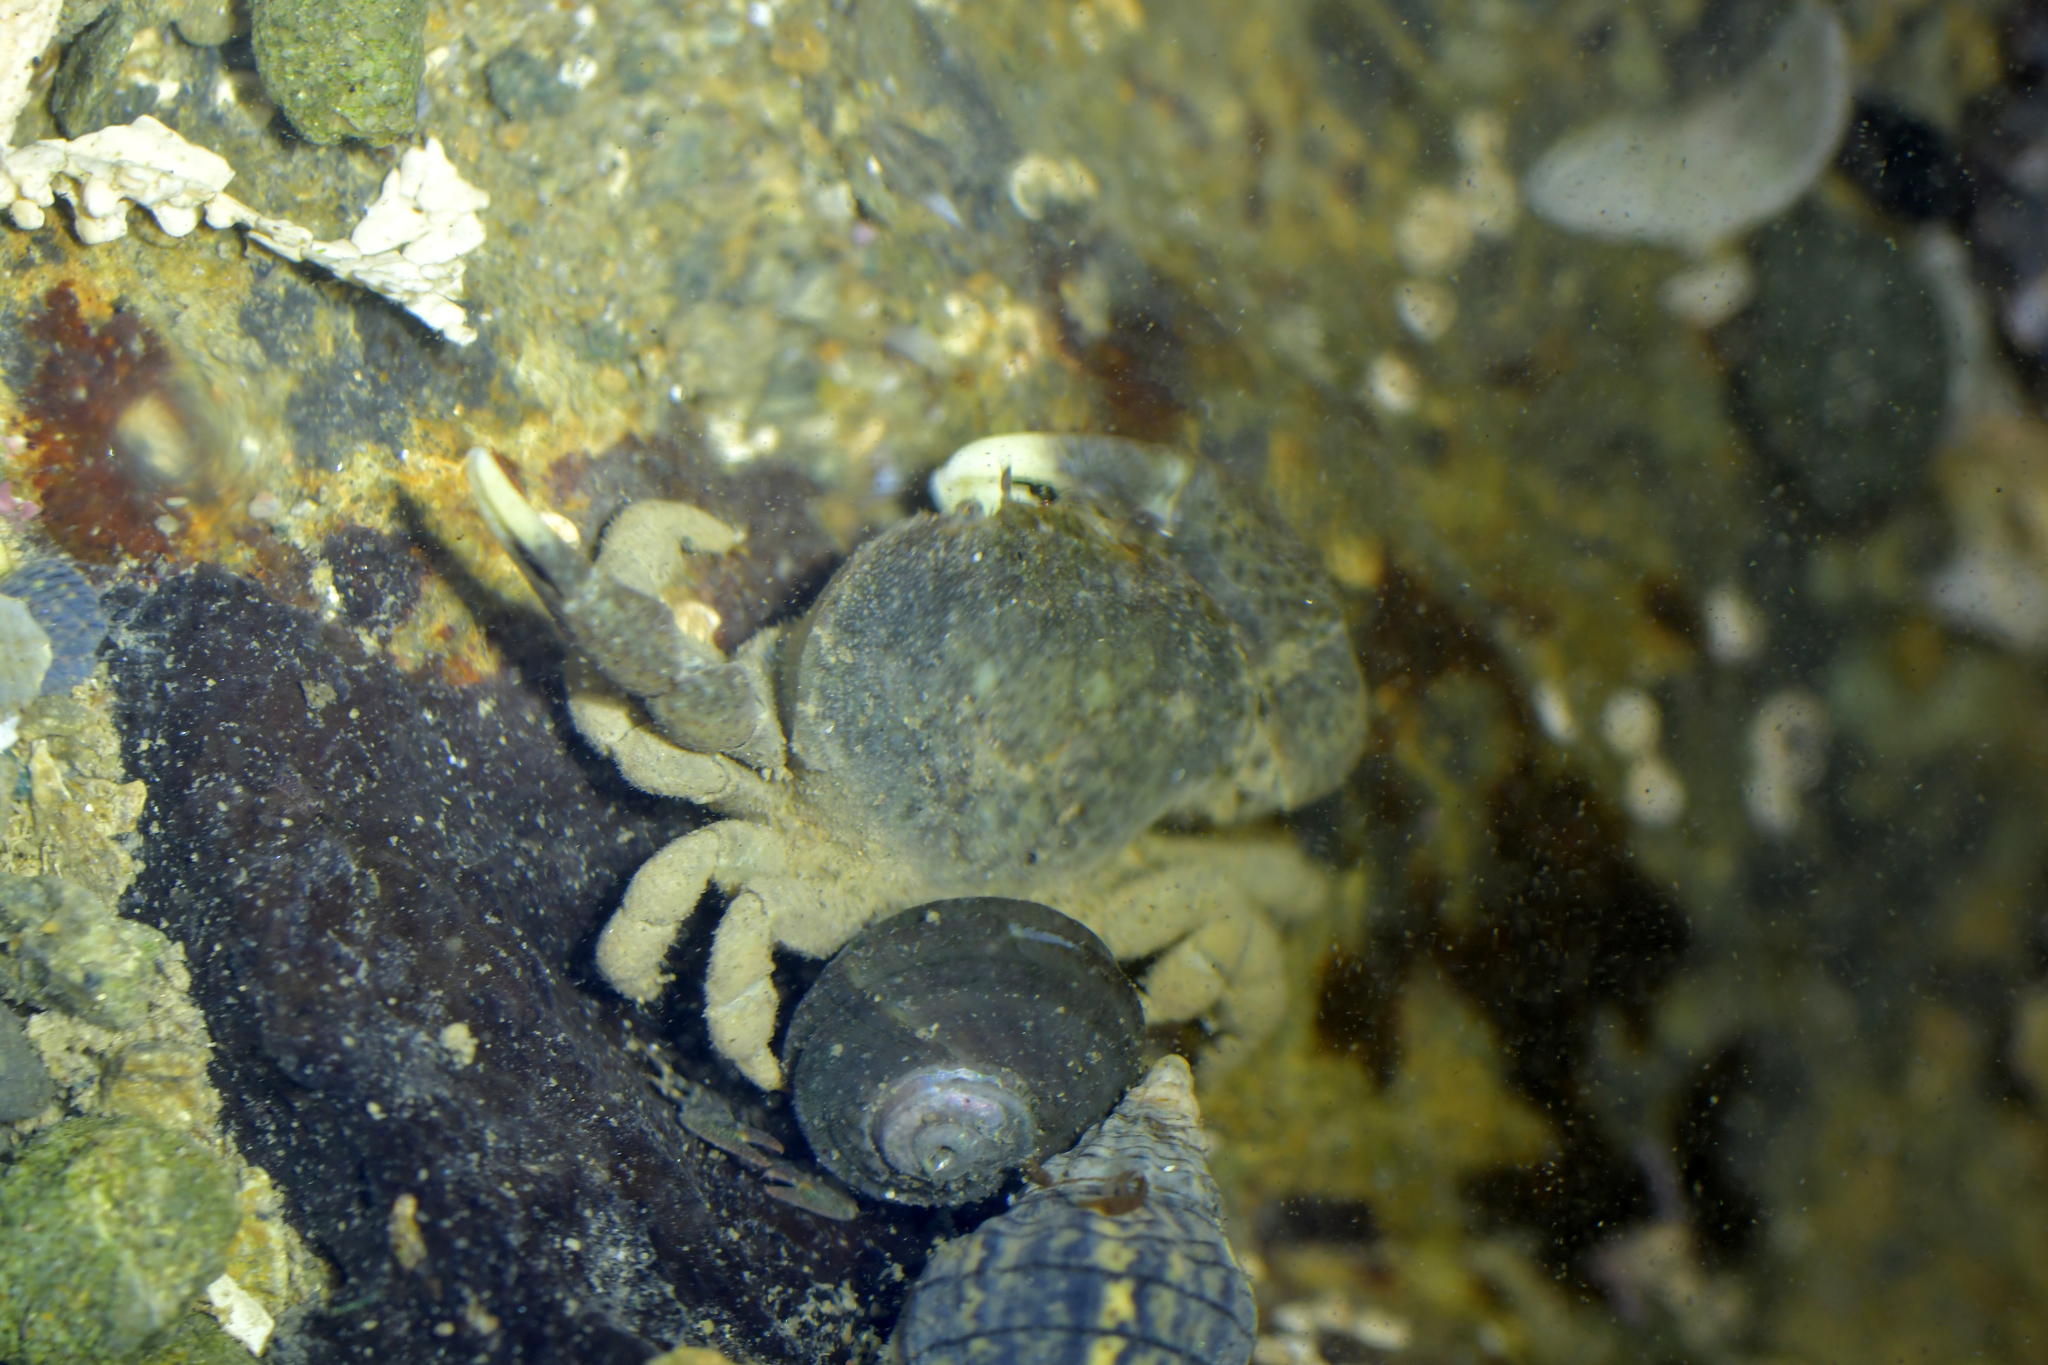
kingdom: Animalia
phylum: Arthropoda
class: Malacostraca
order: Decapoda
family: Heteroziidae
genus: Heterozius
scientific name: Heterozius rotundifrons
